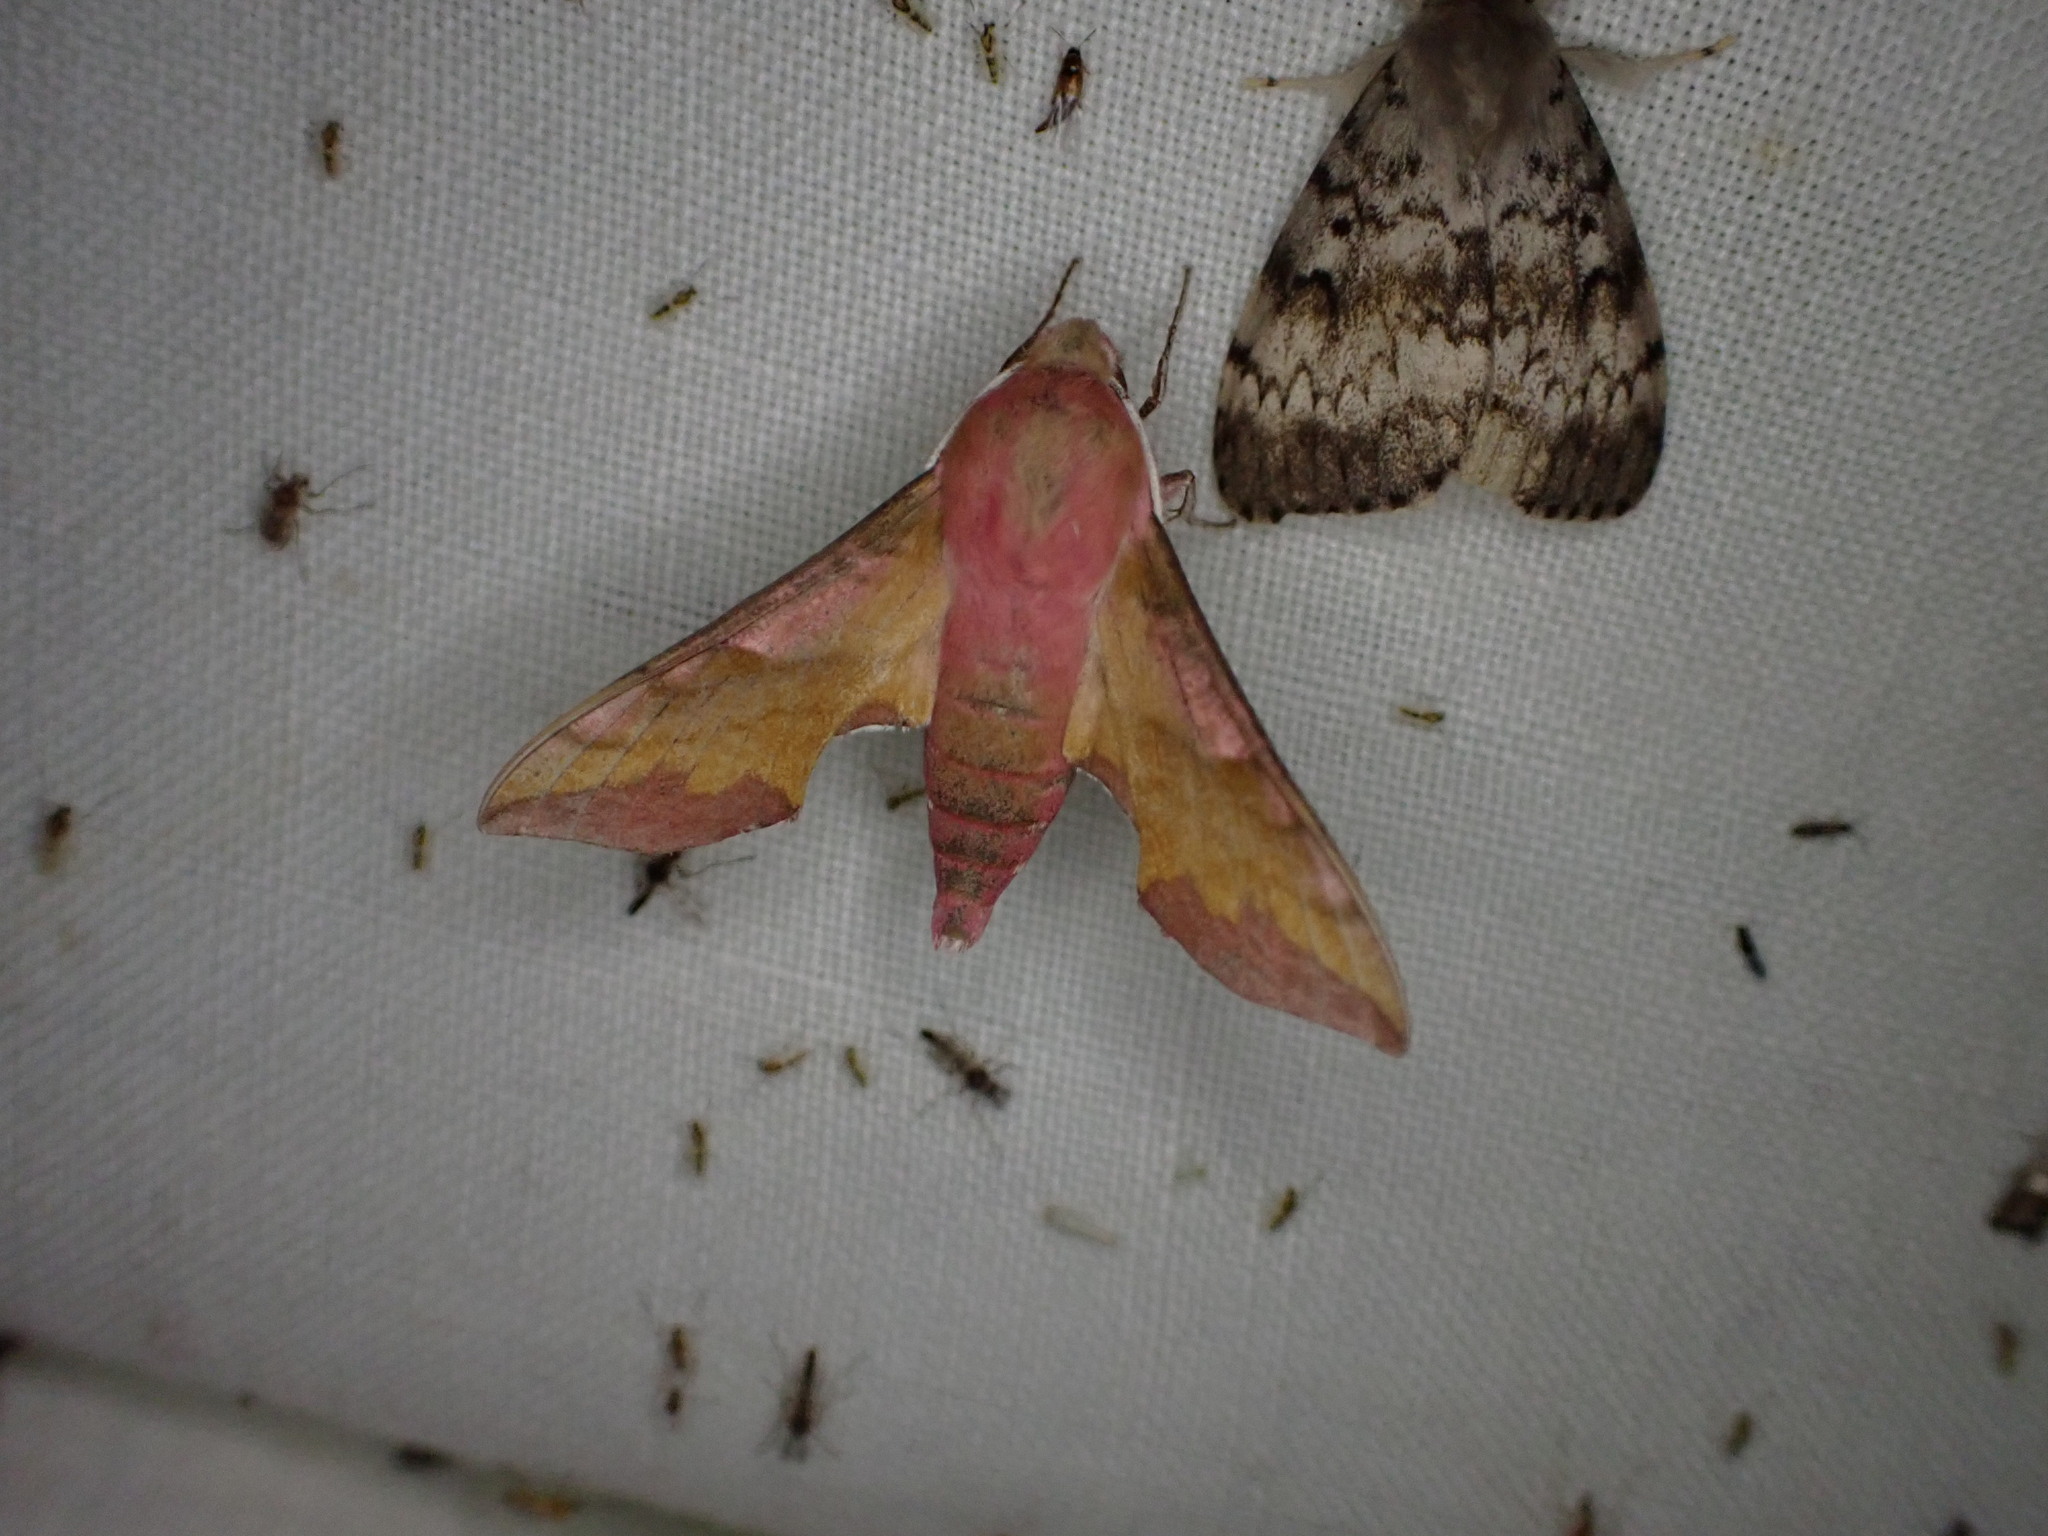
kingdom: Animalia
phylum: Arthropoda
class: Insecta
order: Lepidoptera
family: Sphingidae
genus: Deilephila
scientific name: Deilephila porcellus
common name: Small elephant hawk-moth
